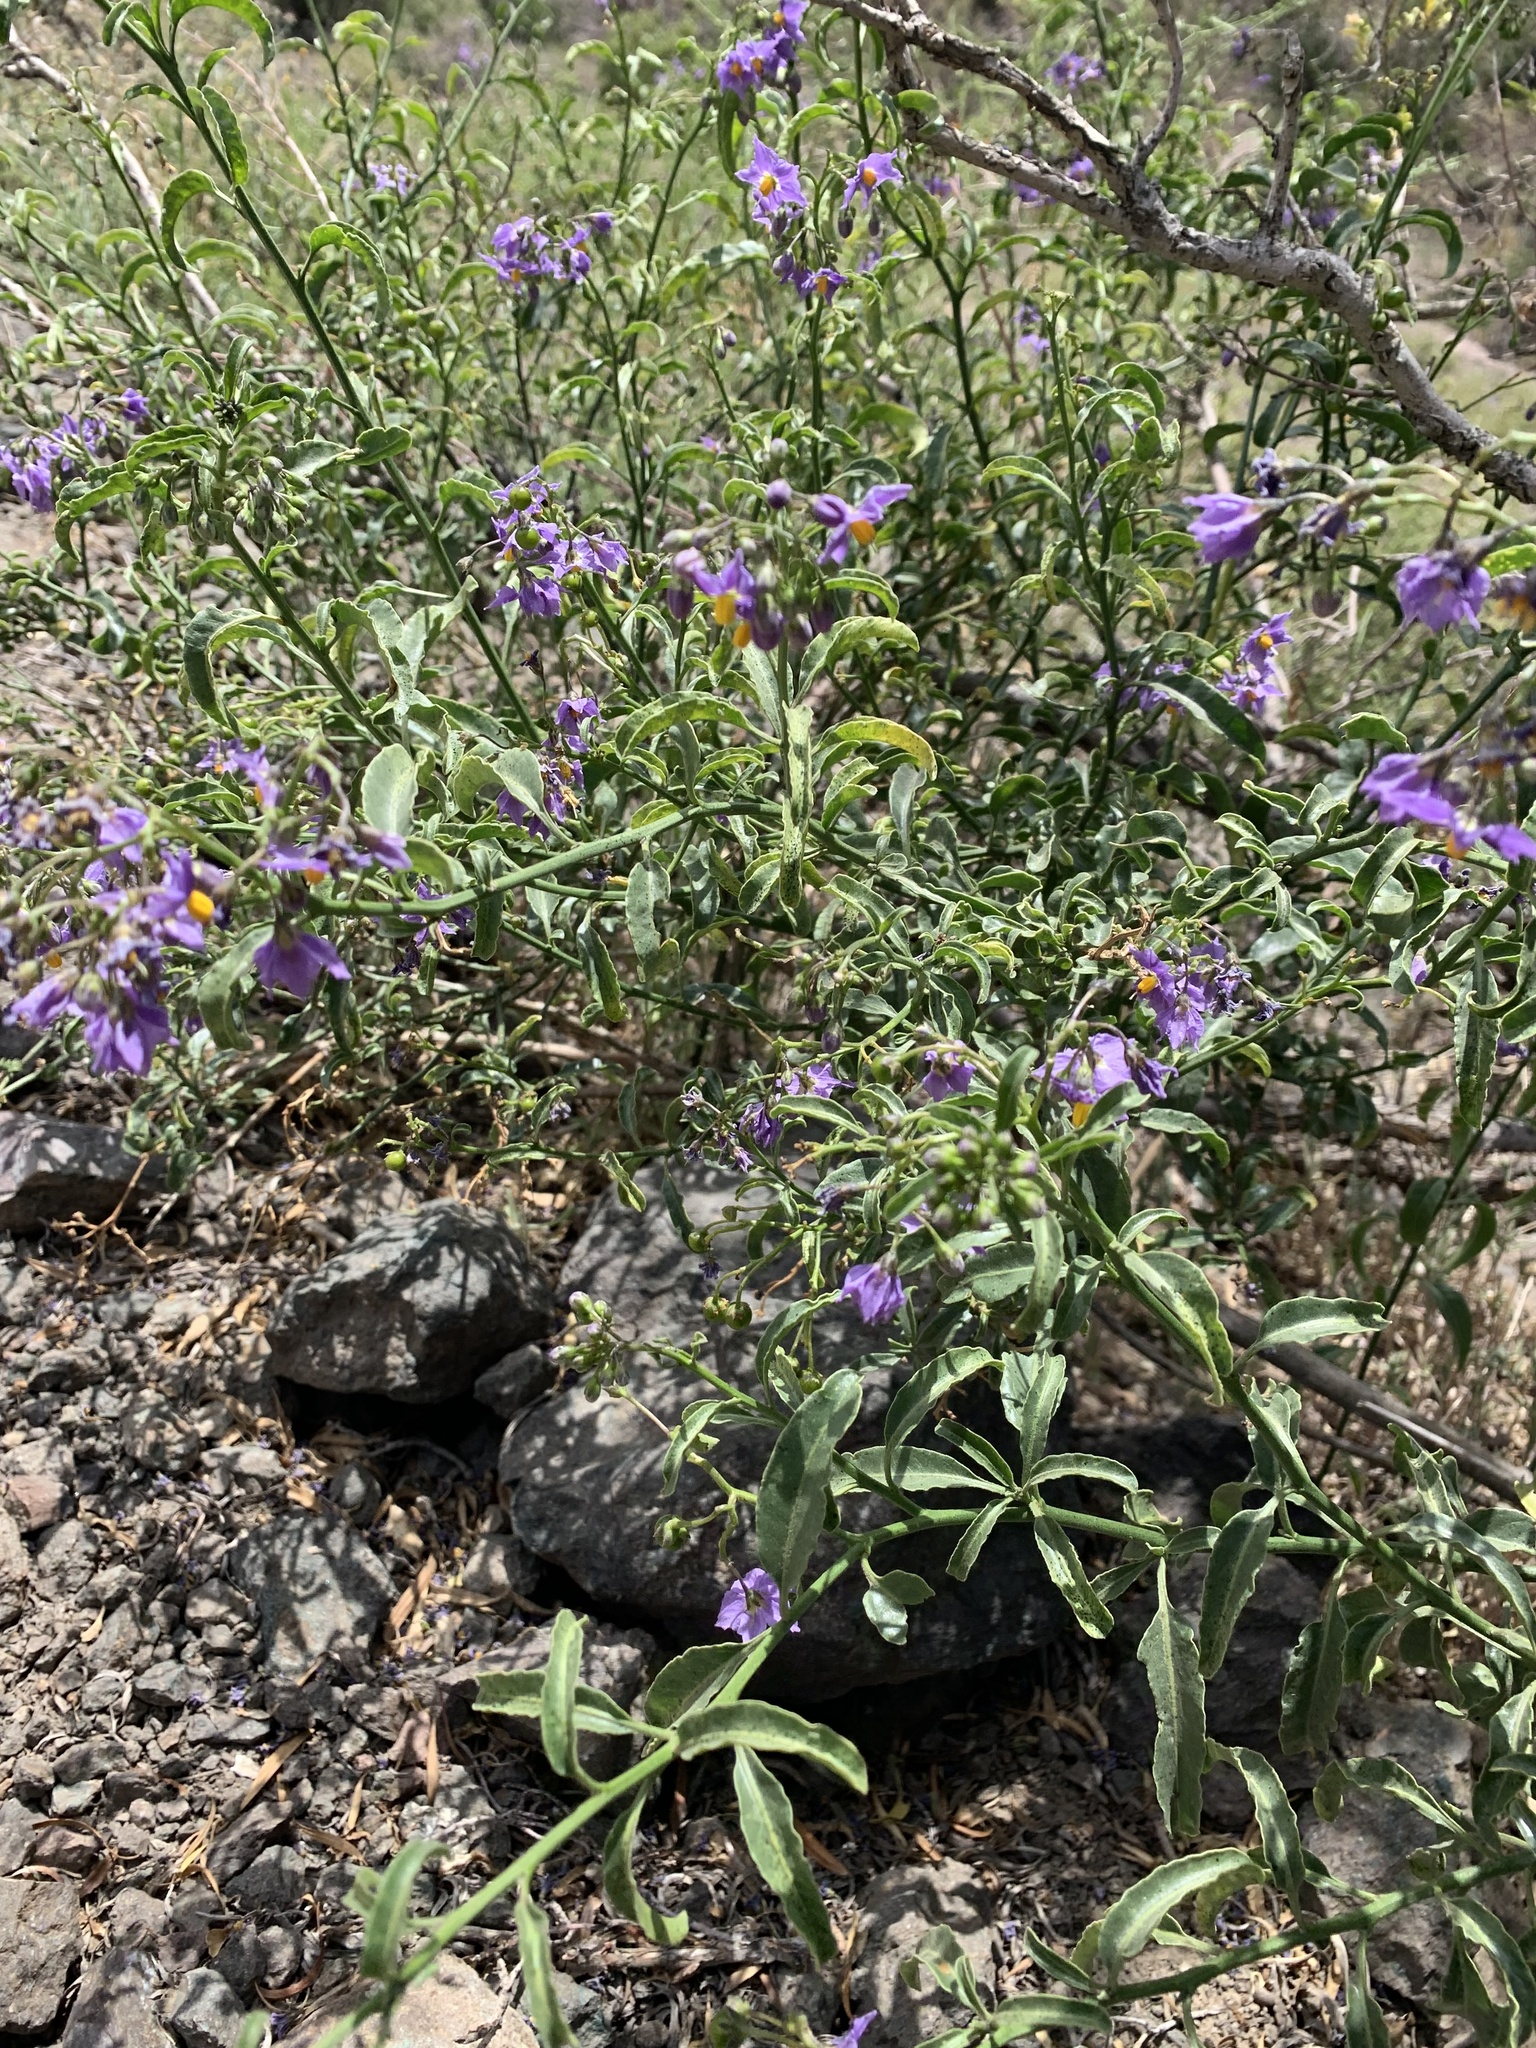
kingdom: Plantae
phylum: Tracheophyta
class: Magnoliopsida
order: Solanales
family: Solanaceae
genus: Solanum
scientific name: Solanum crispum
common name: Chilean nightshade
